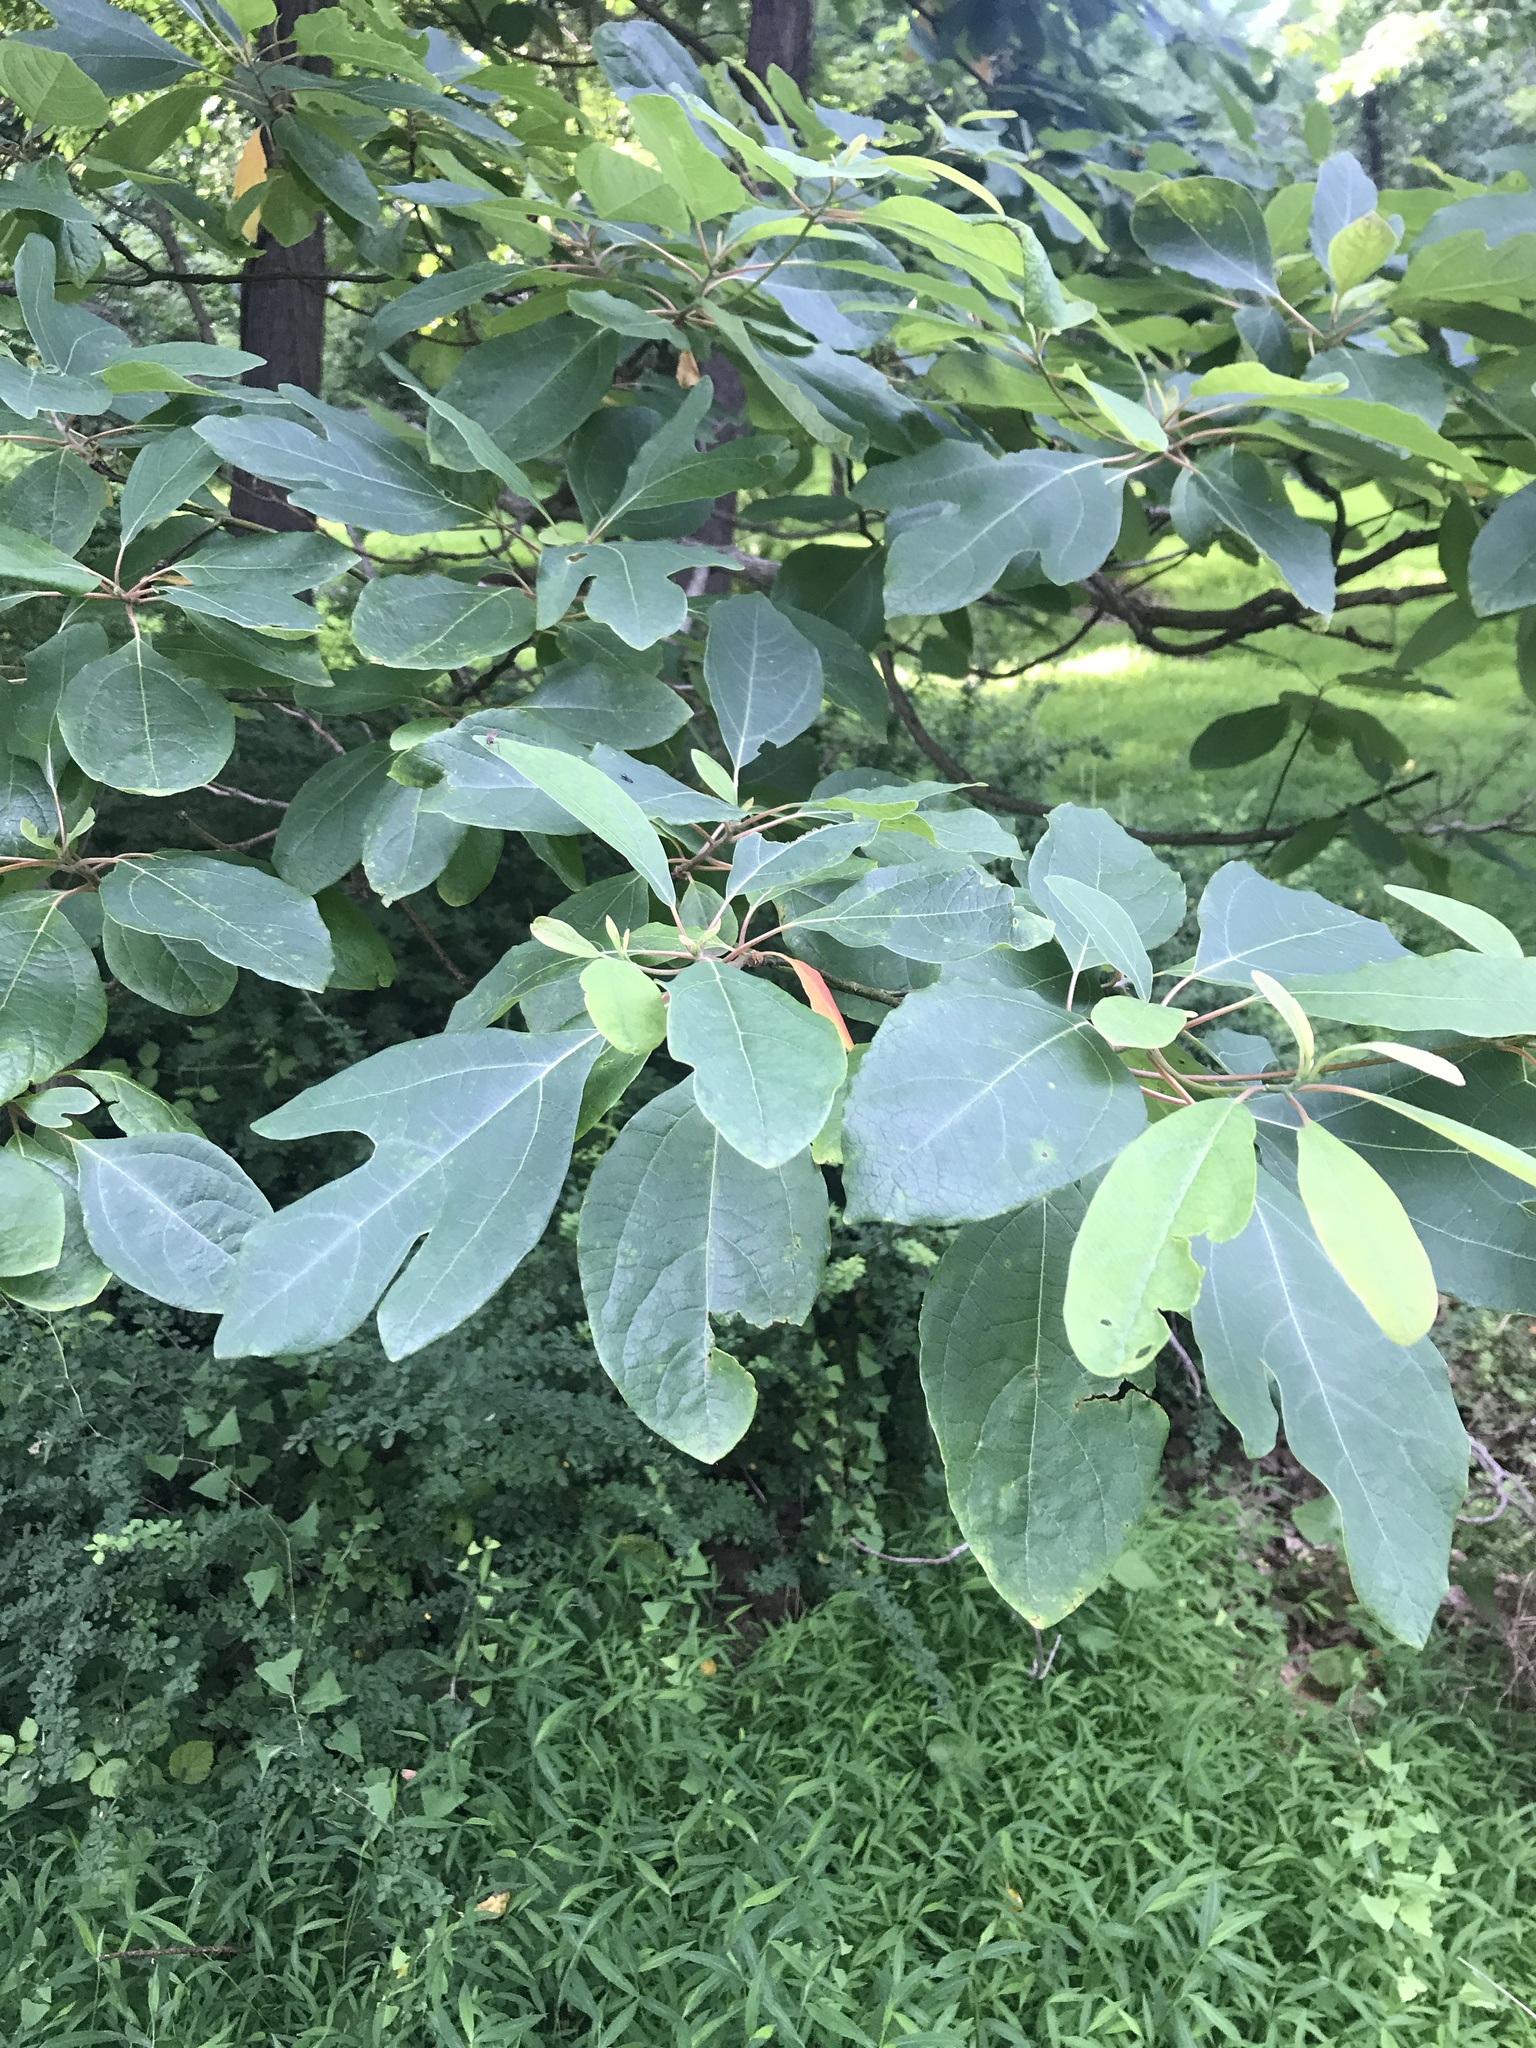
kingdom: Plantae
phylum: Tracheophyta
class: Magnoliopsida
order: Laurales
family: Lauraceae
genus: Sassafras
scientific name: Sassafras albidum
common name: Sassafras
